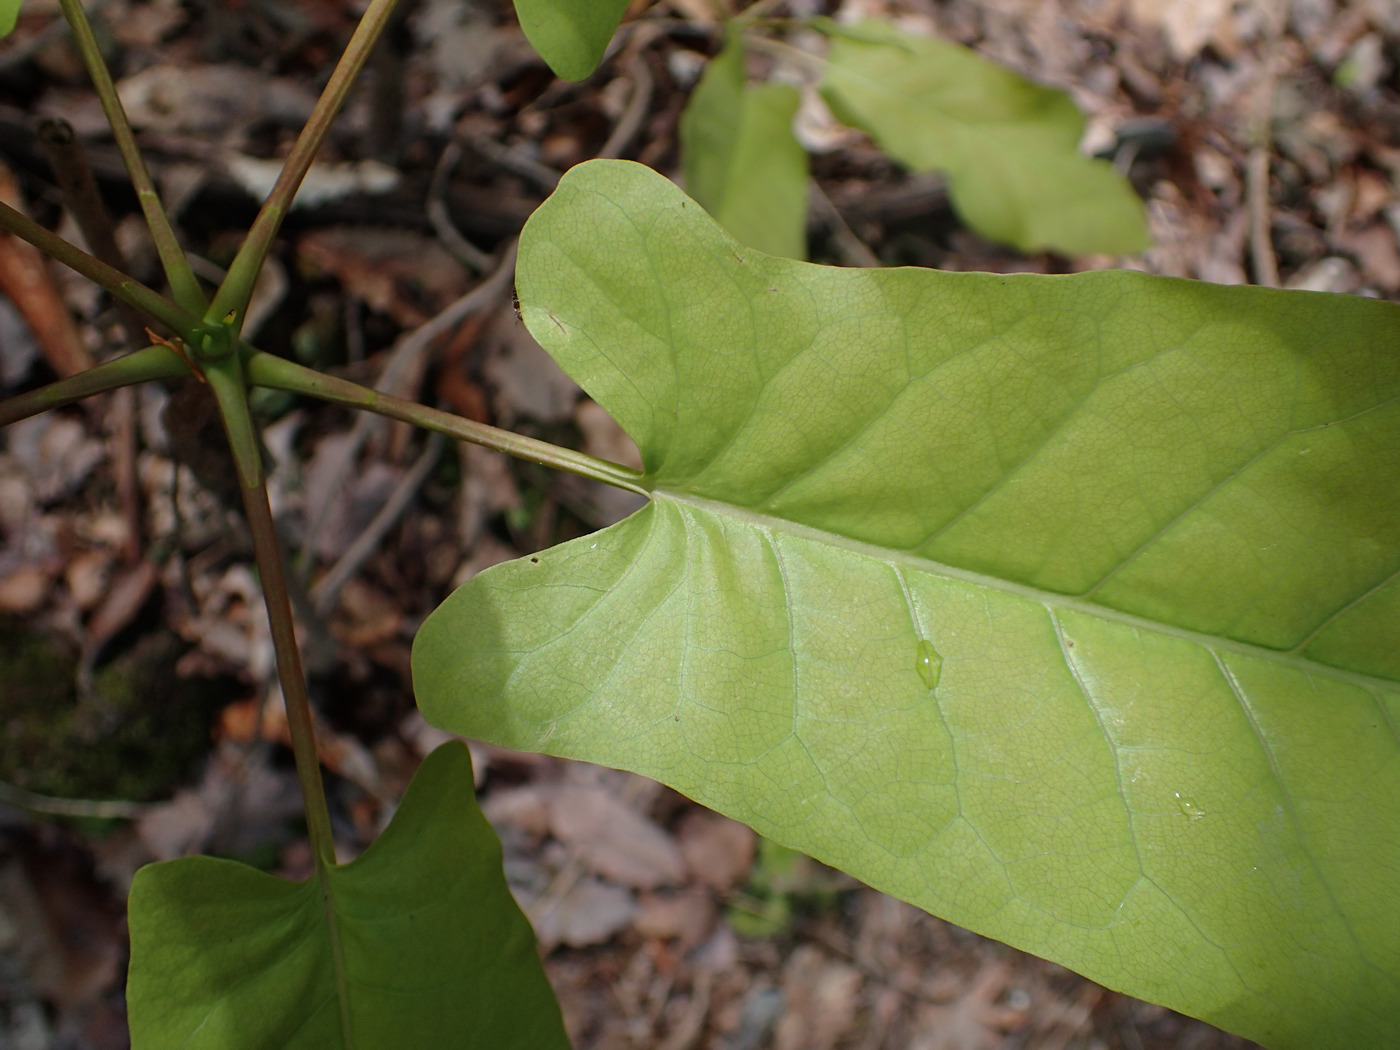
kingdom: Plantae
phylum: Tracheophyta
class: Magnoliopsida
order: Magnoliales
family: Magnoliaceae
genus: Magnolia
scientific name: Magnolia fraseri
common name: Fraser's magnolia
